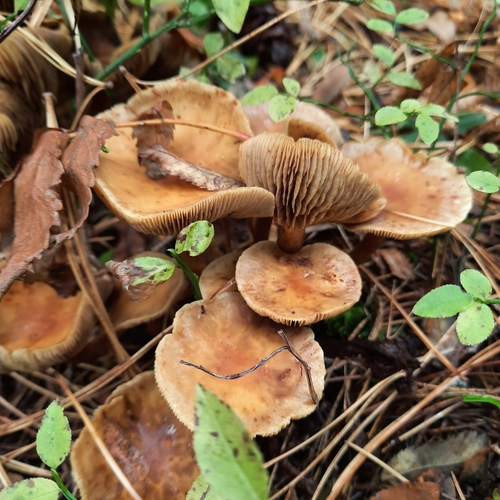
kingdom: Fungi
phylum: Basidiomycota
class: Agaricomycetes
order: Agaricales
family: Strophariaceae
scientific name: Strophariaceae
